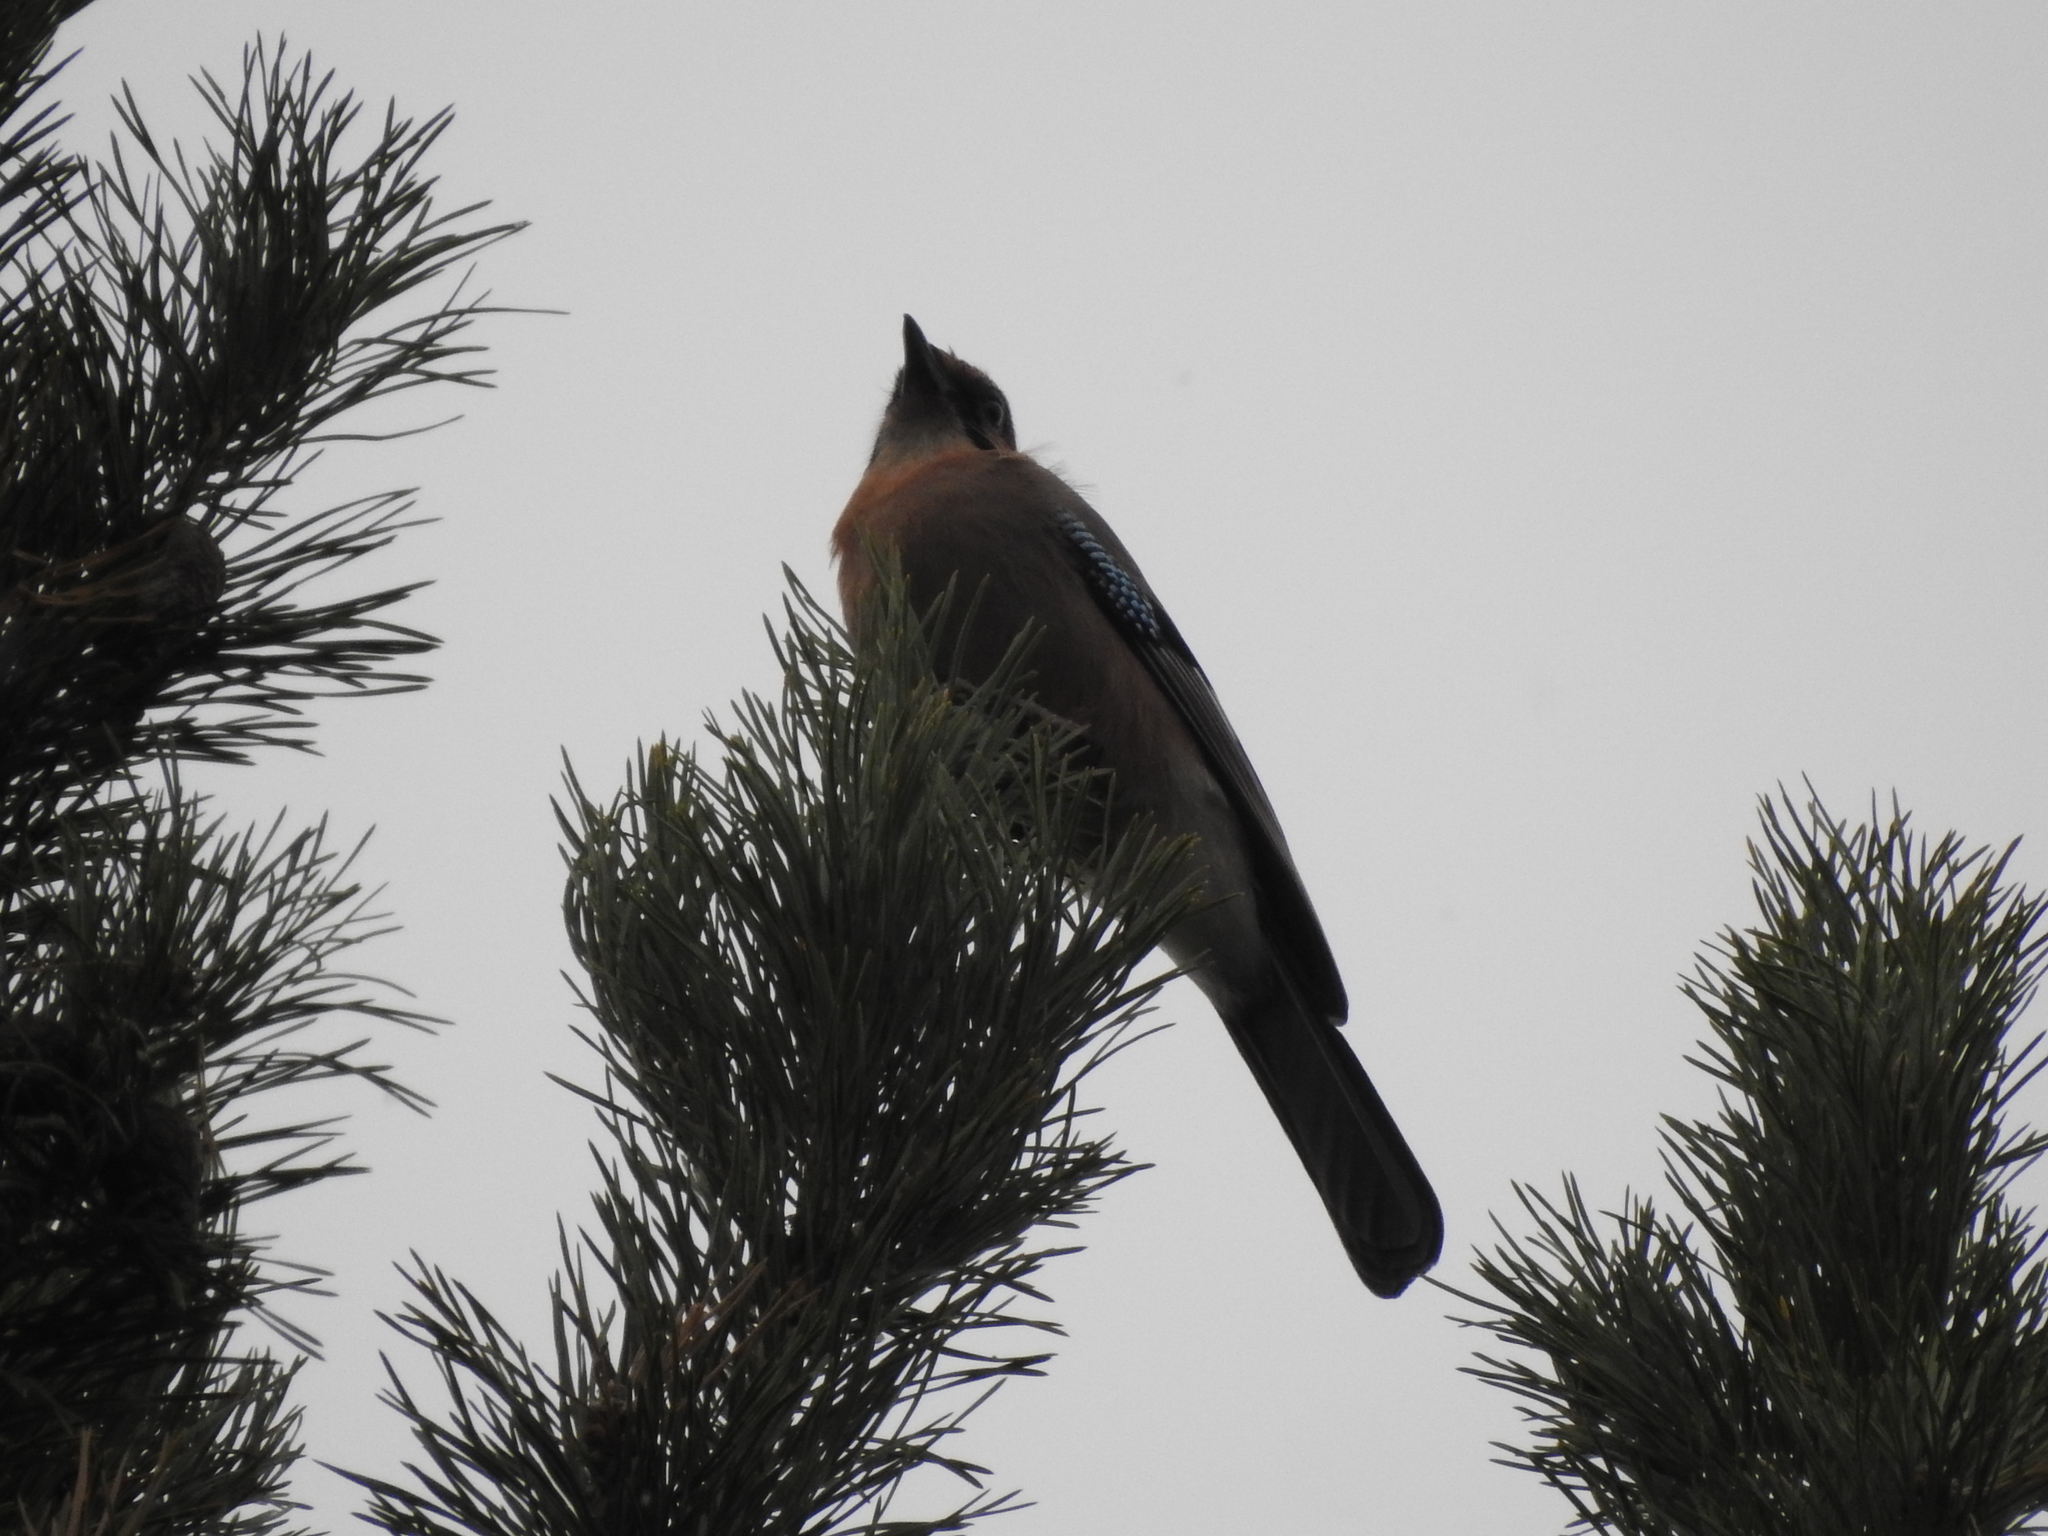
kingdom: Animalia
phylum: Chordata
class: Aves
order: Passeriformes
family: Corvidae
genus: Garrulus
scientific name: Garrulus glandarius
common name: Eurasian jay
